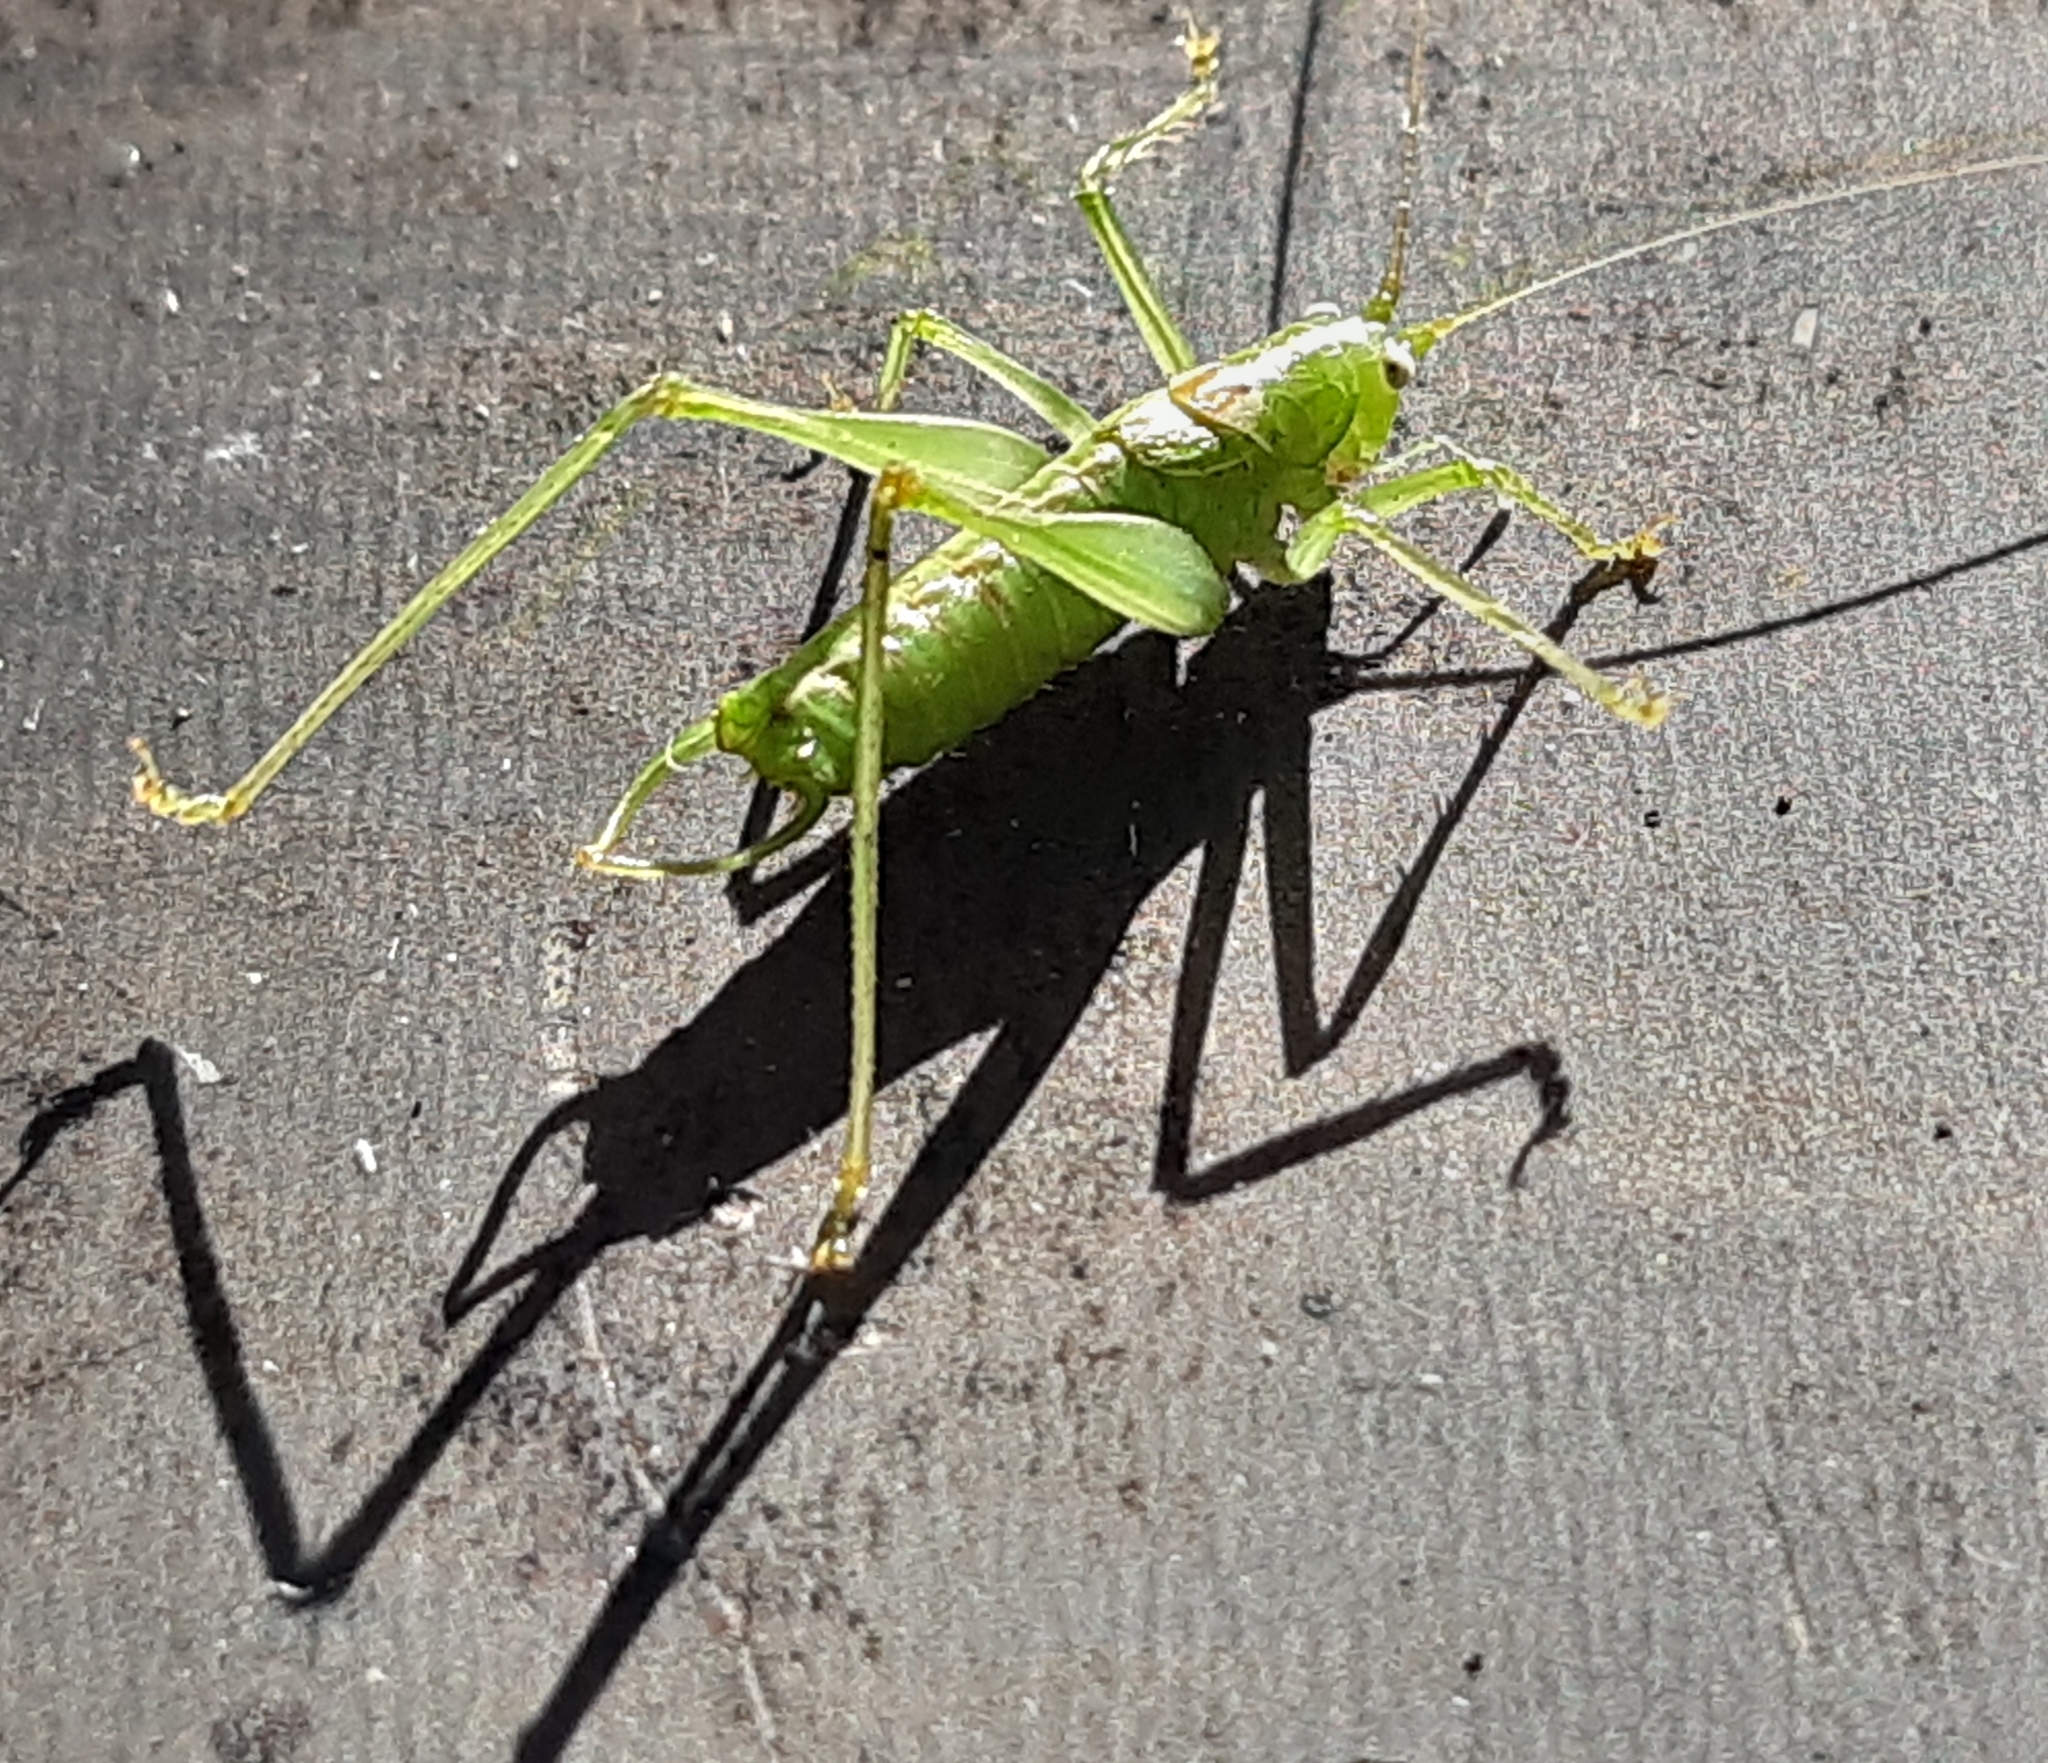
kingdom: Animalia
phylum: Arthropoda
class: Insecta
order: Orthoptera
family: Tettigoniidae
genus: Meconema
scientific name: Meconema meridionale
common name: Southern oak bush-cricket
